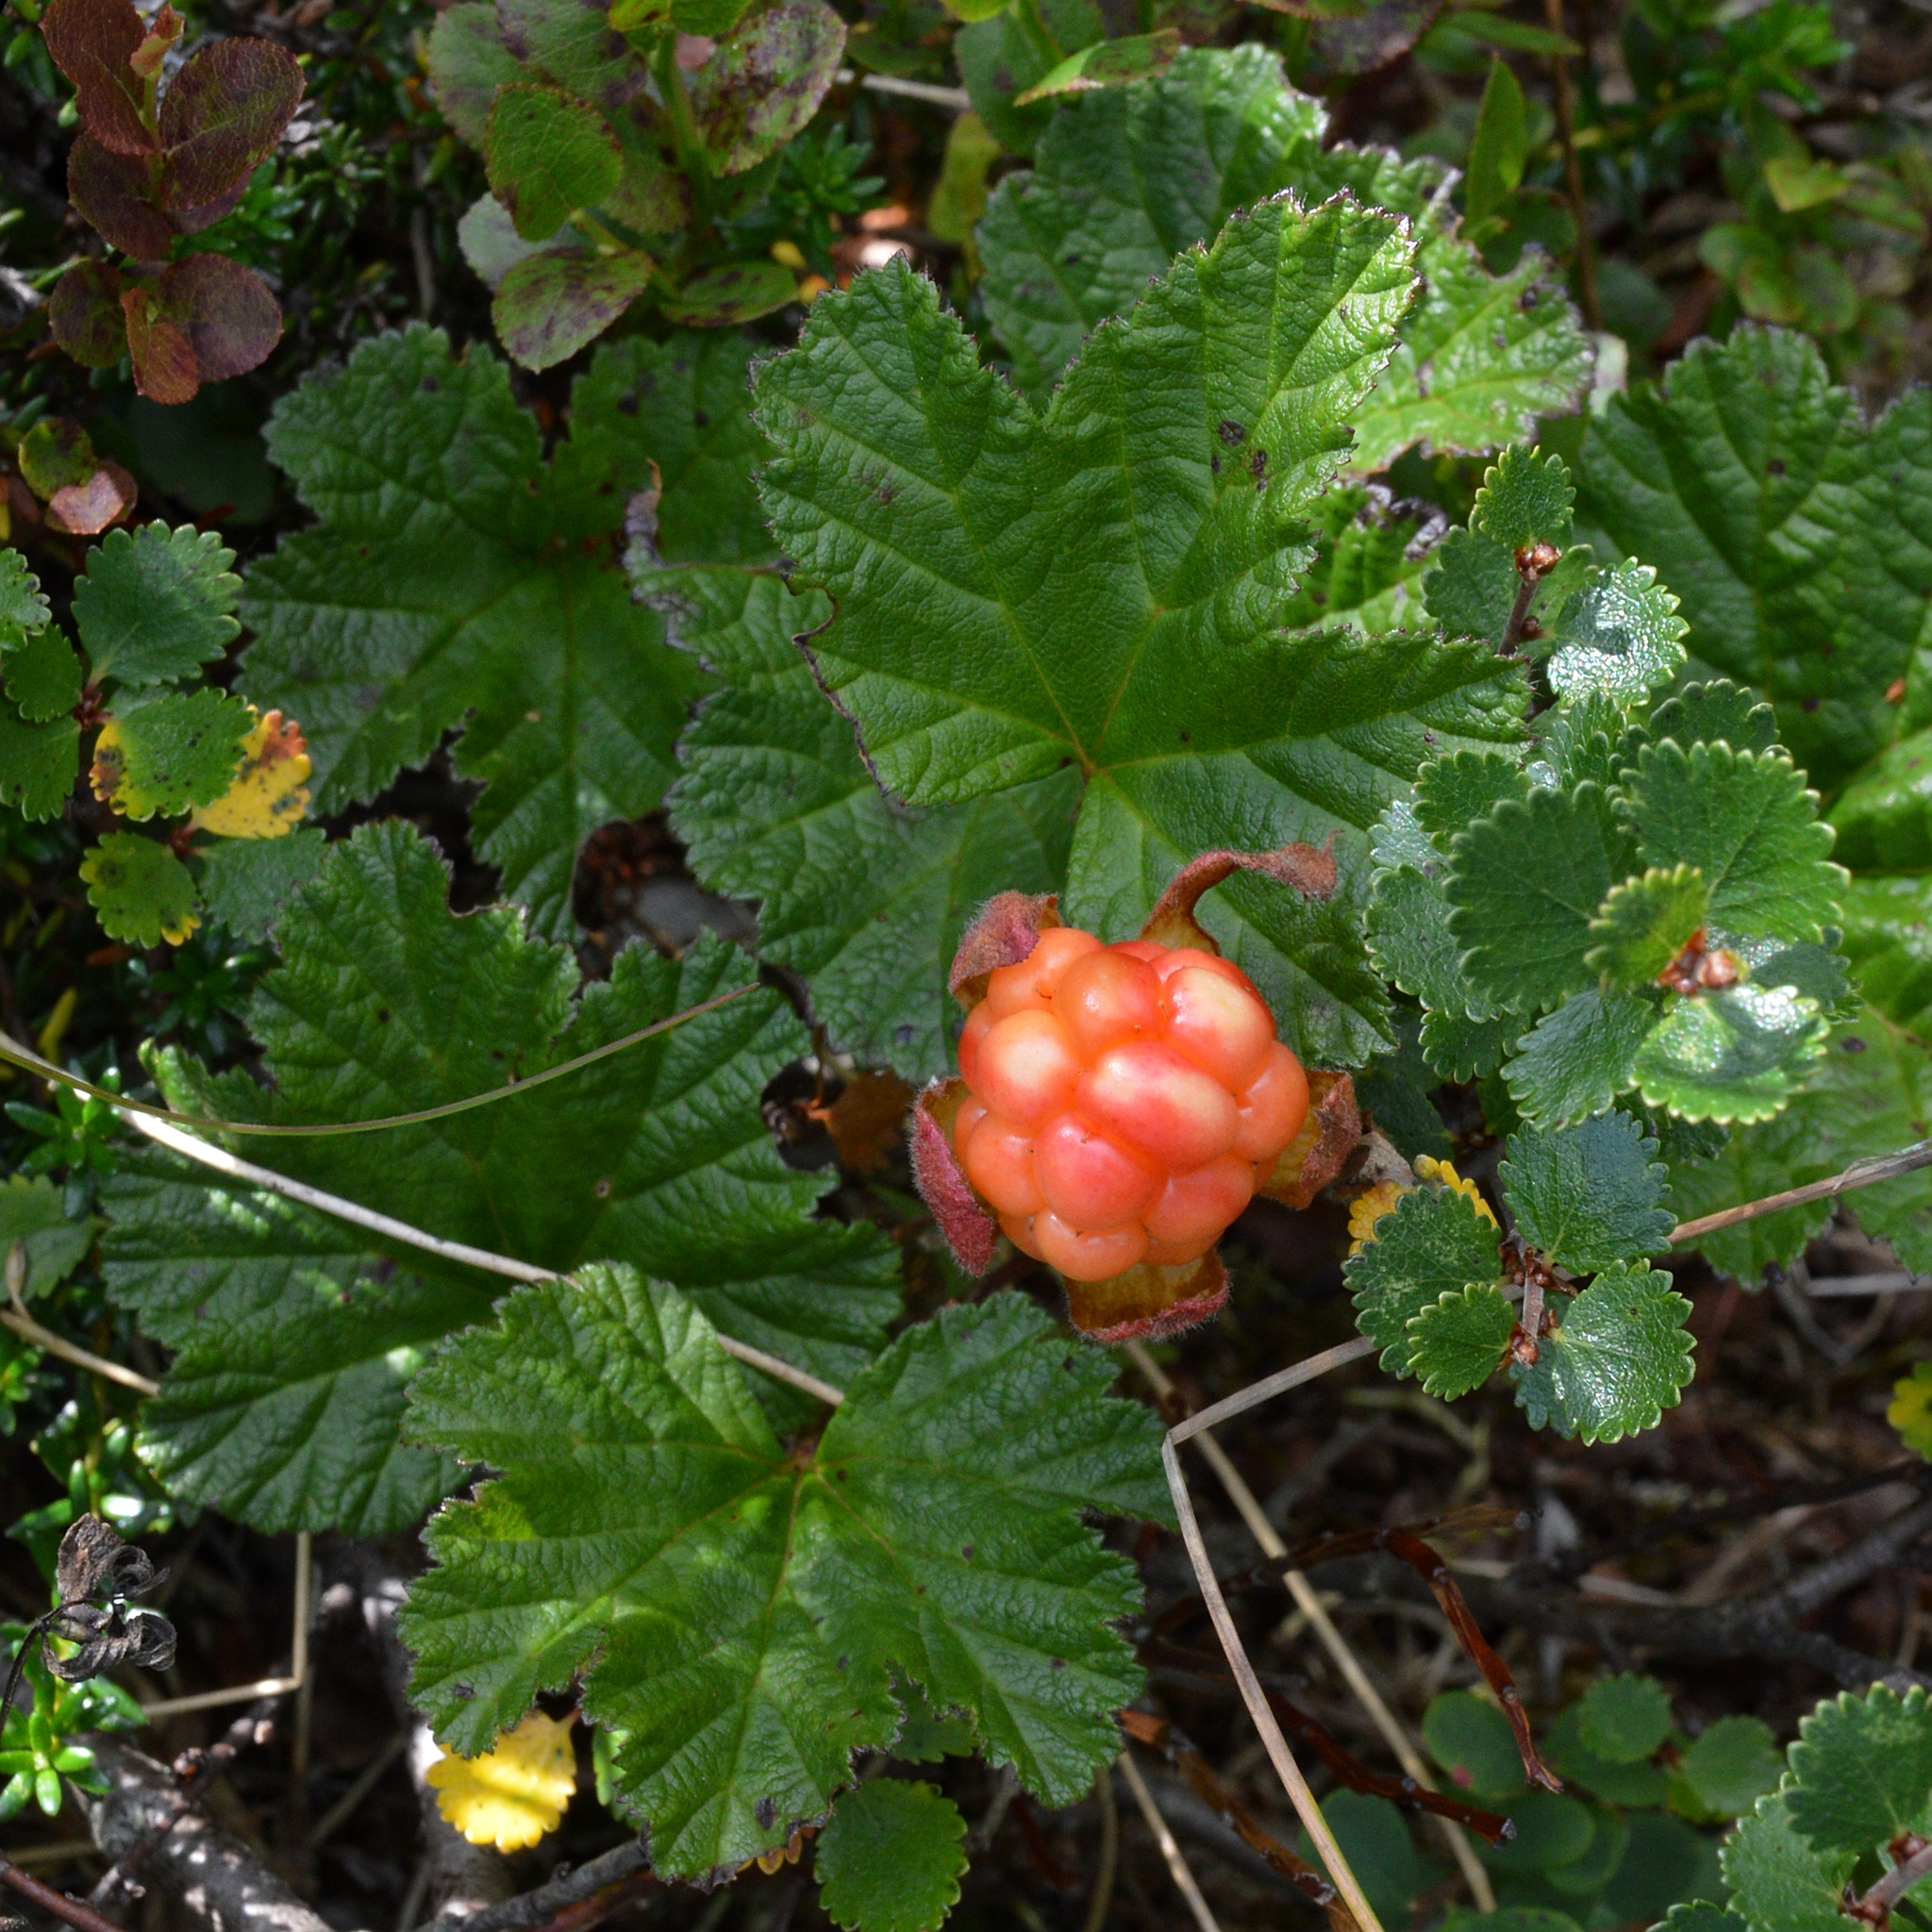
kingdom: Plantae
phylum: Tracheophyta
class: Magnoliopsida
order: Rosales
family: Rosaceae
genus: Rubus
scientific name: Rubus chamaemorus
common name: Cloudberry
